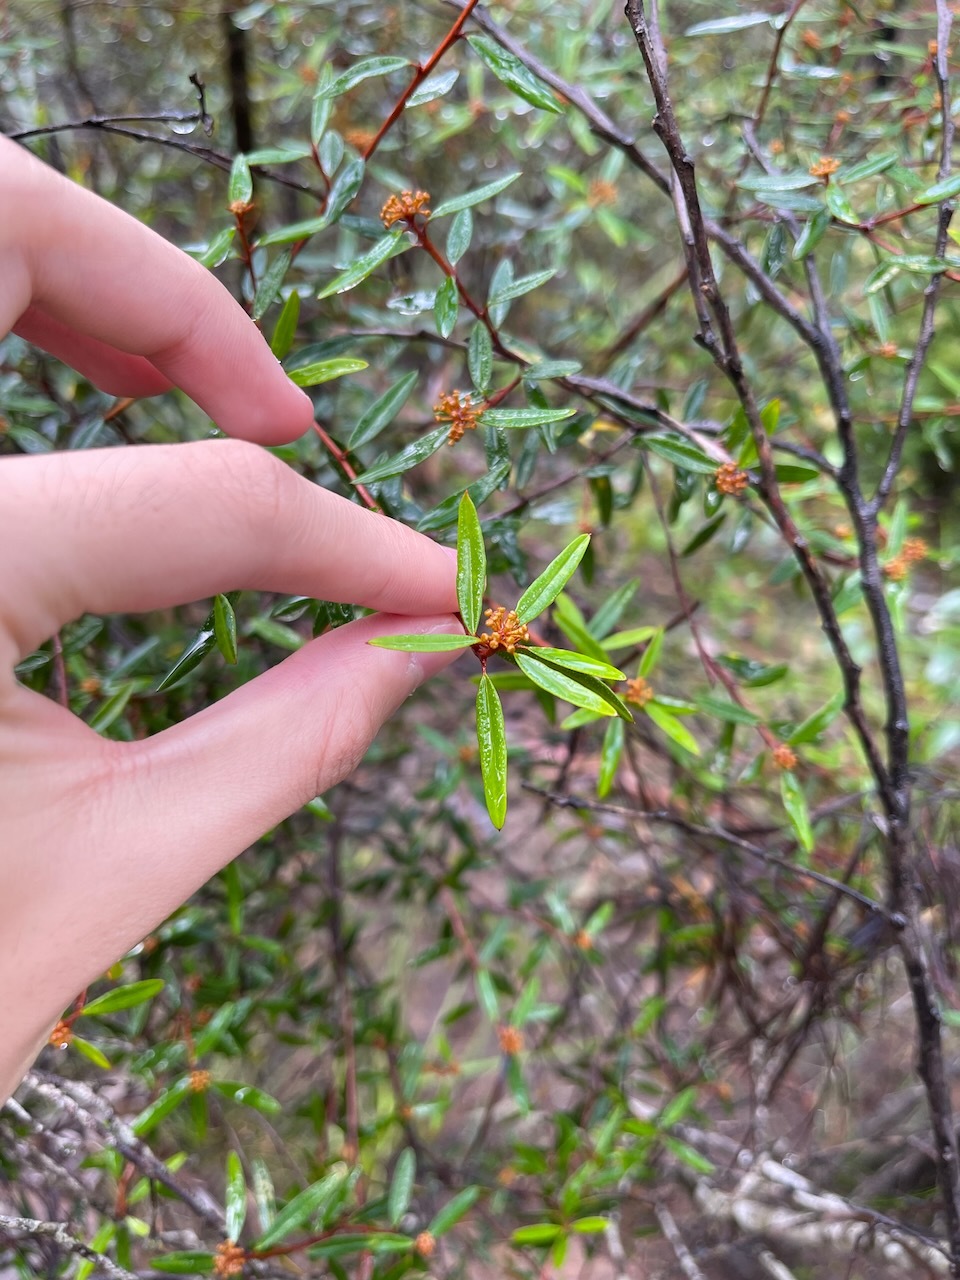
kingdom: Plantae
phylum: Tracheophyta
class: Magnoliopsida
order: Sapindales
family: Rutaceae
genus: Phebalium
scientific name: Phebalium squamulosum
